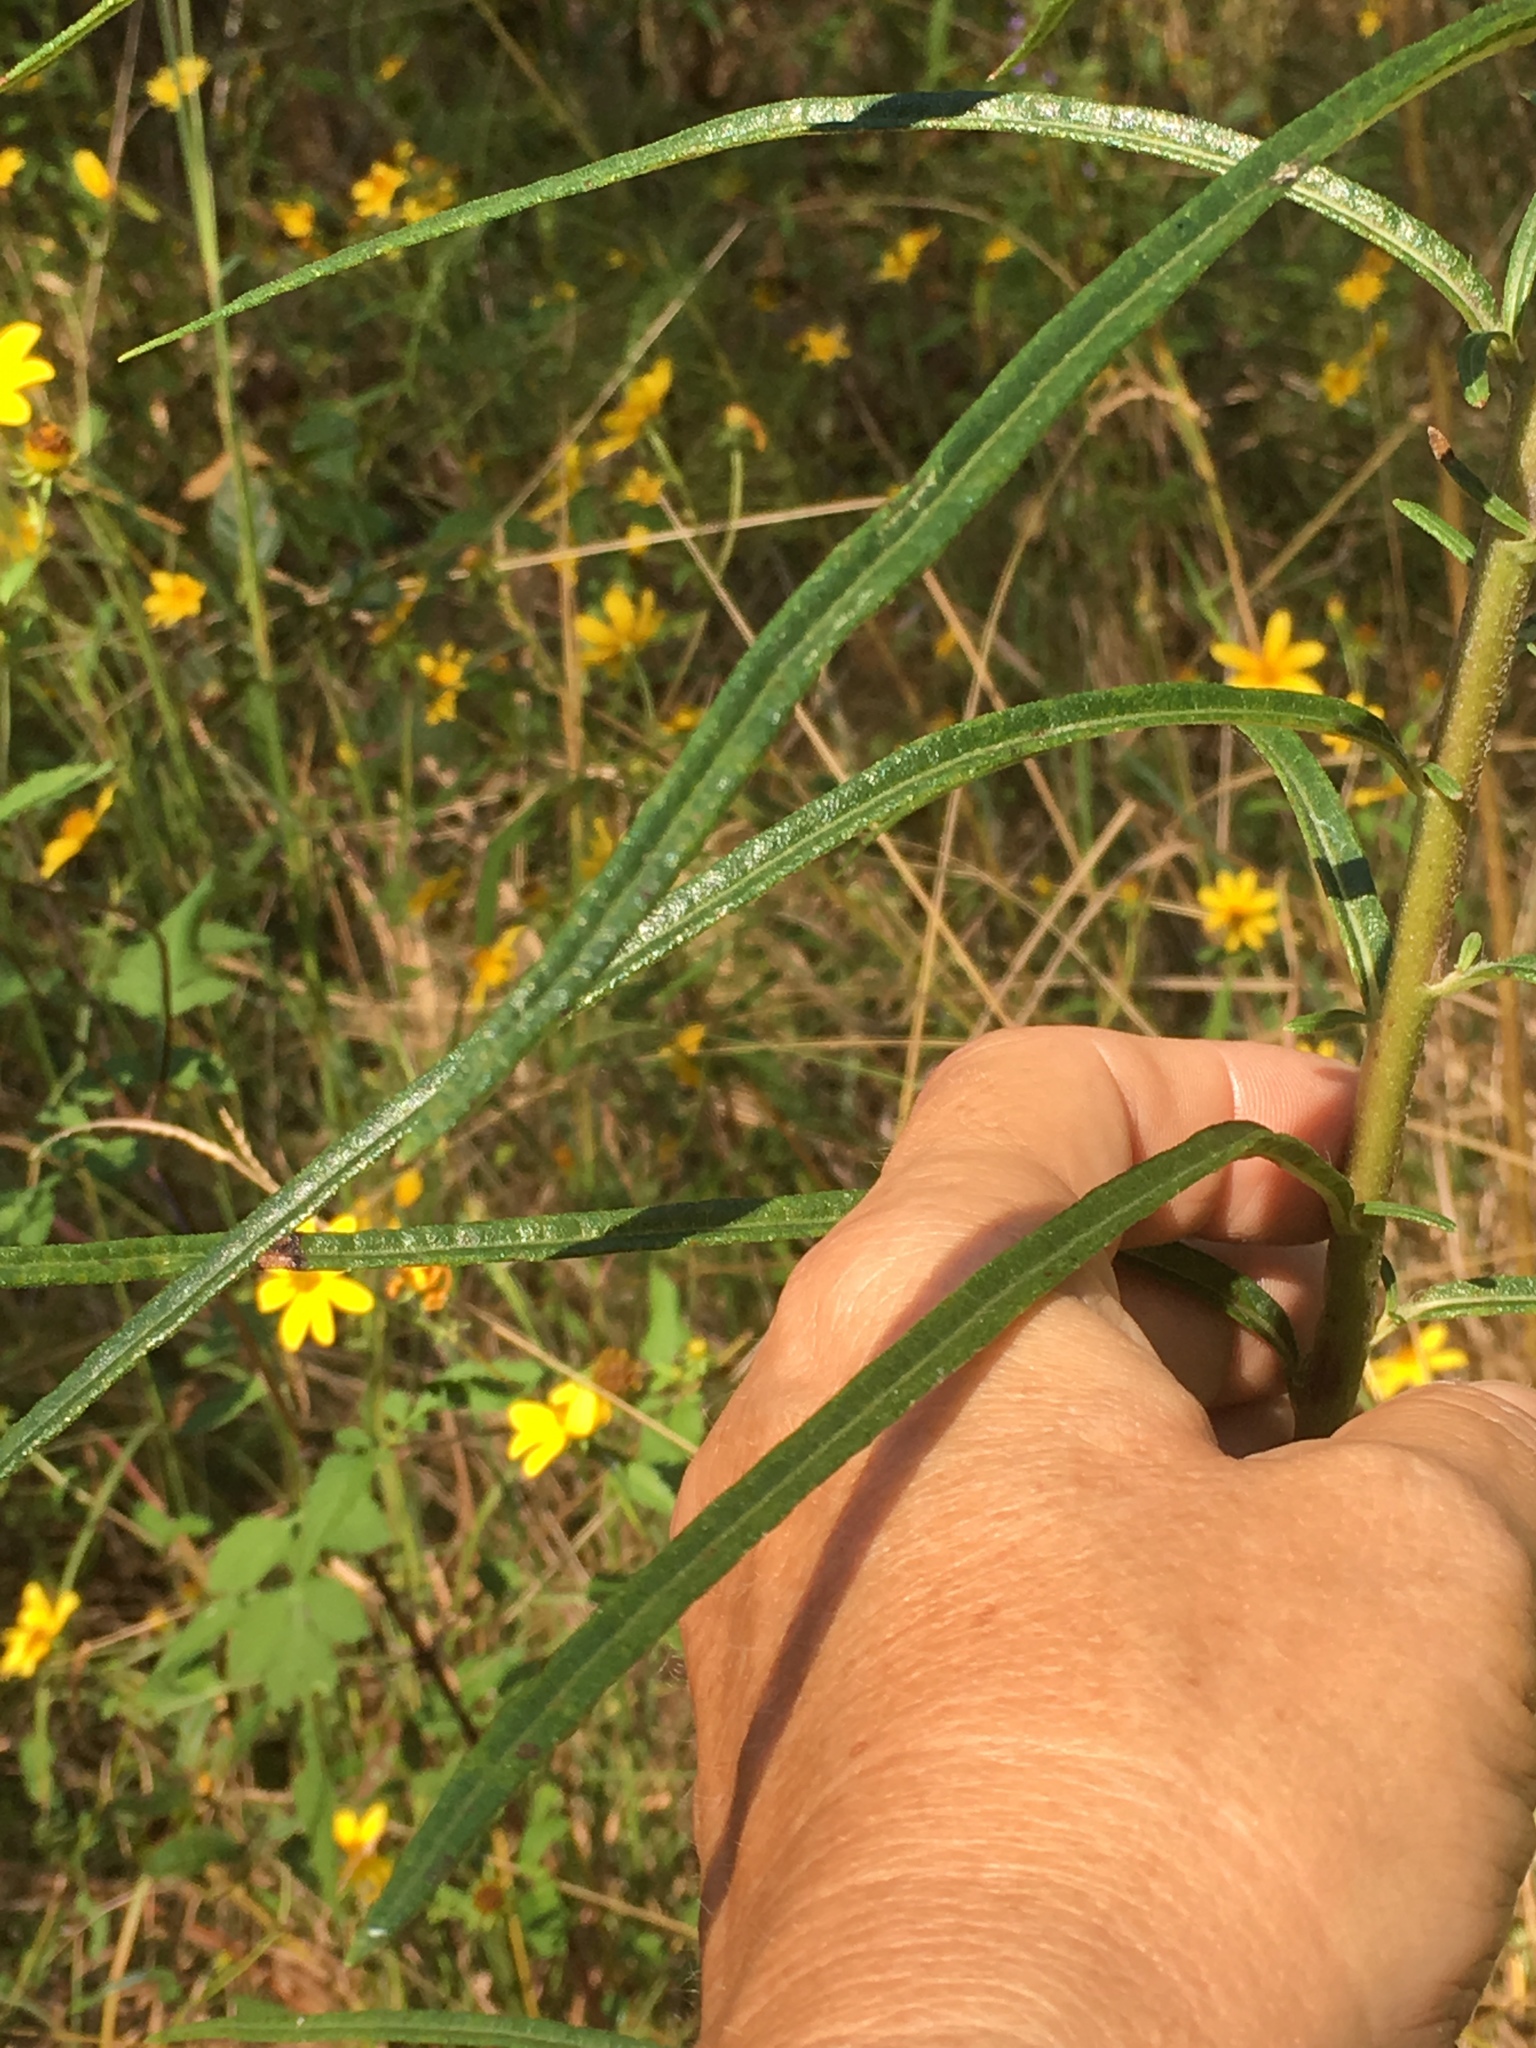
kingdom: Plantae
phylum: Tracheophyta
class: Magnoliopsida
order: Asterales
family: Asteraceae
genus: Helianthus
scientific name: Helianthus angustifolius
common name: Swamp sunflower
